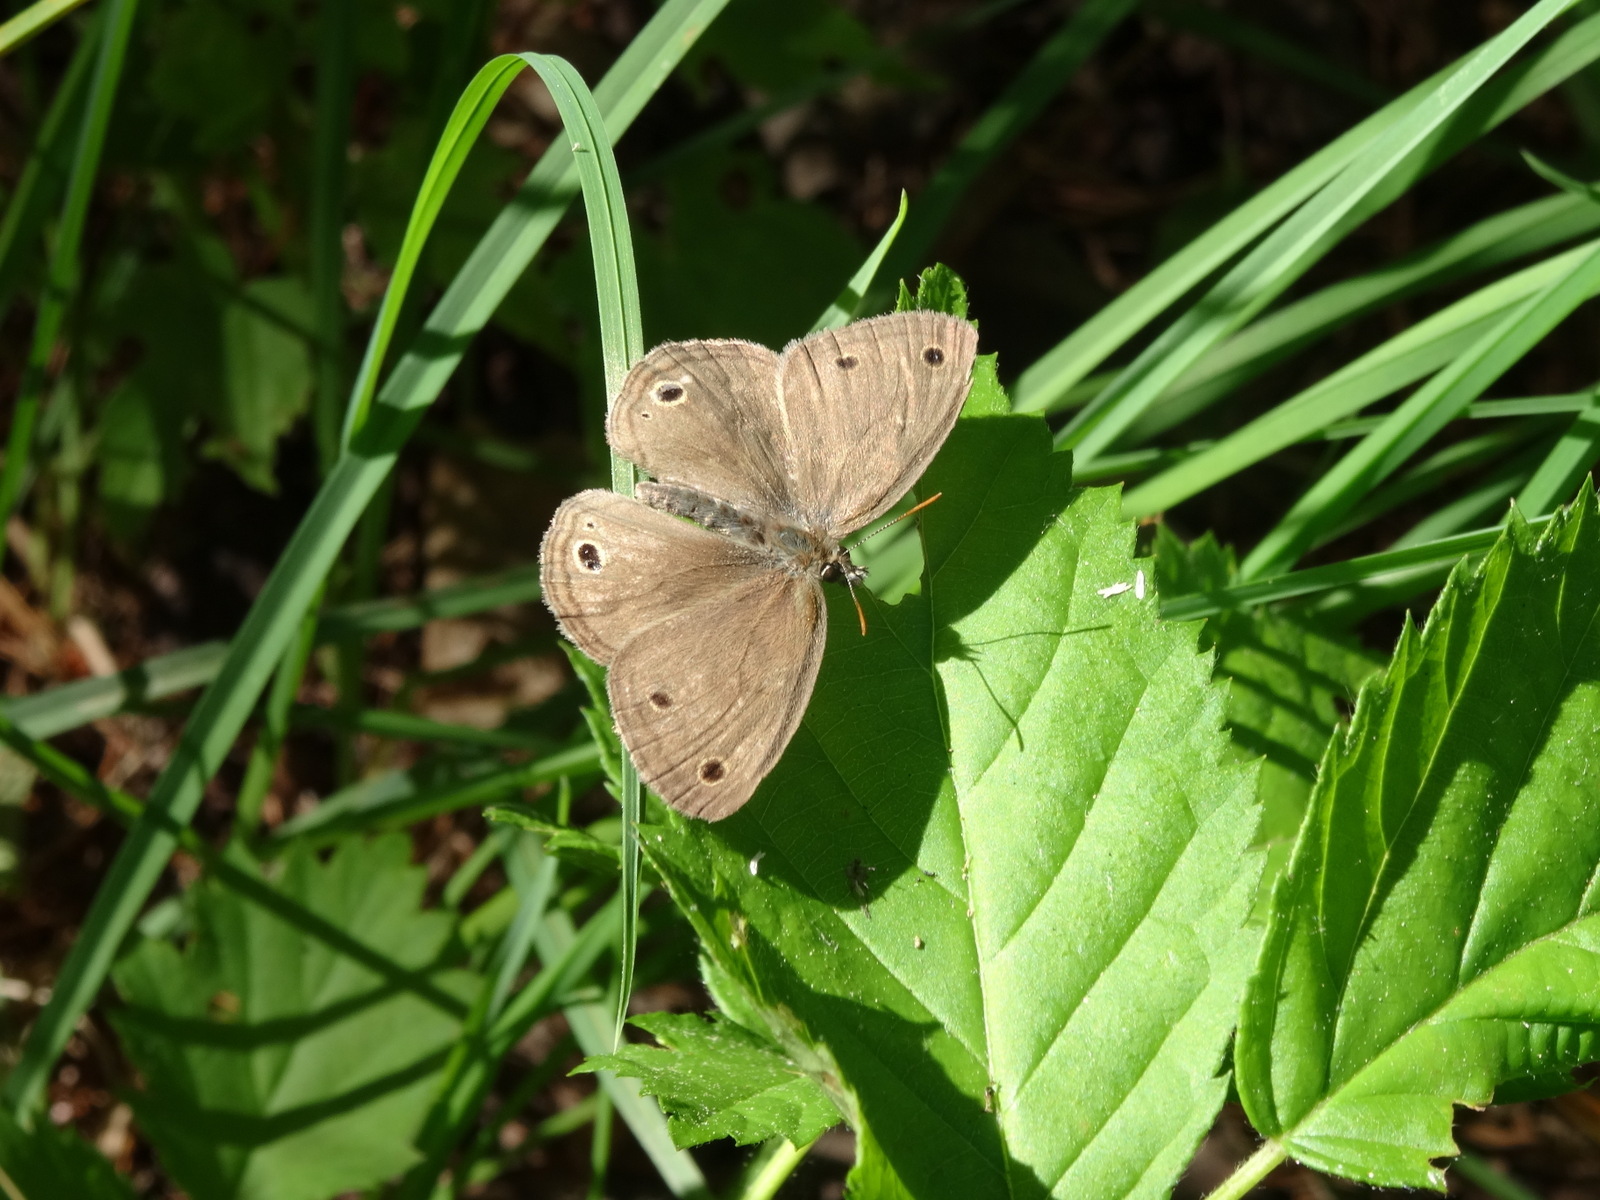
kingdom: Animalia
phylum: Arthropoda
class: Insecta
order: Lepidoptera
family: Nymphalidae
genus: Euptychia
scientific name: Euptychia cymela
